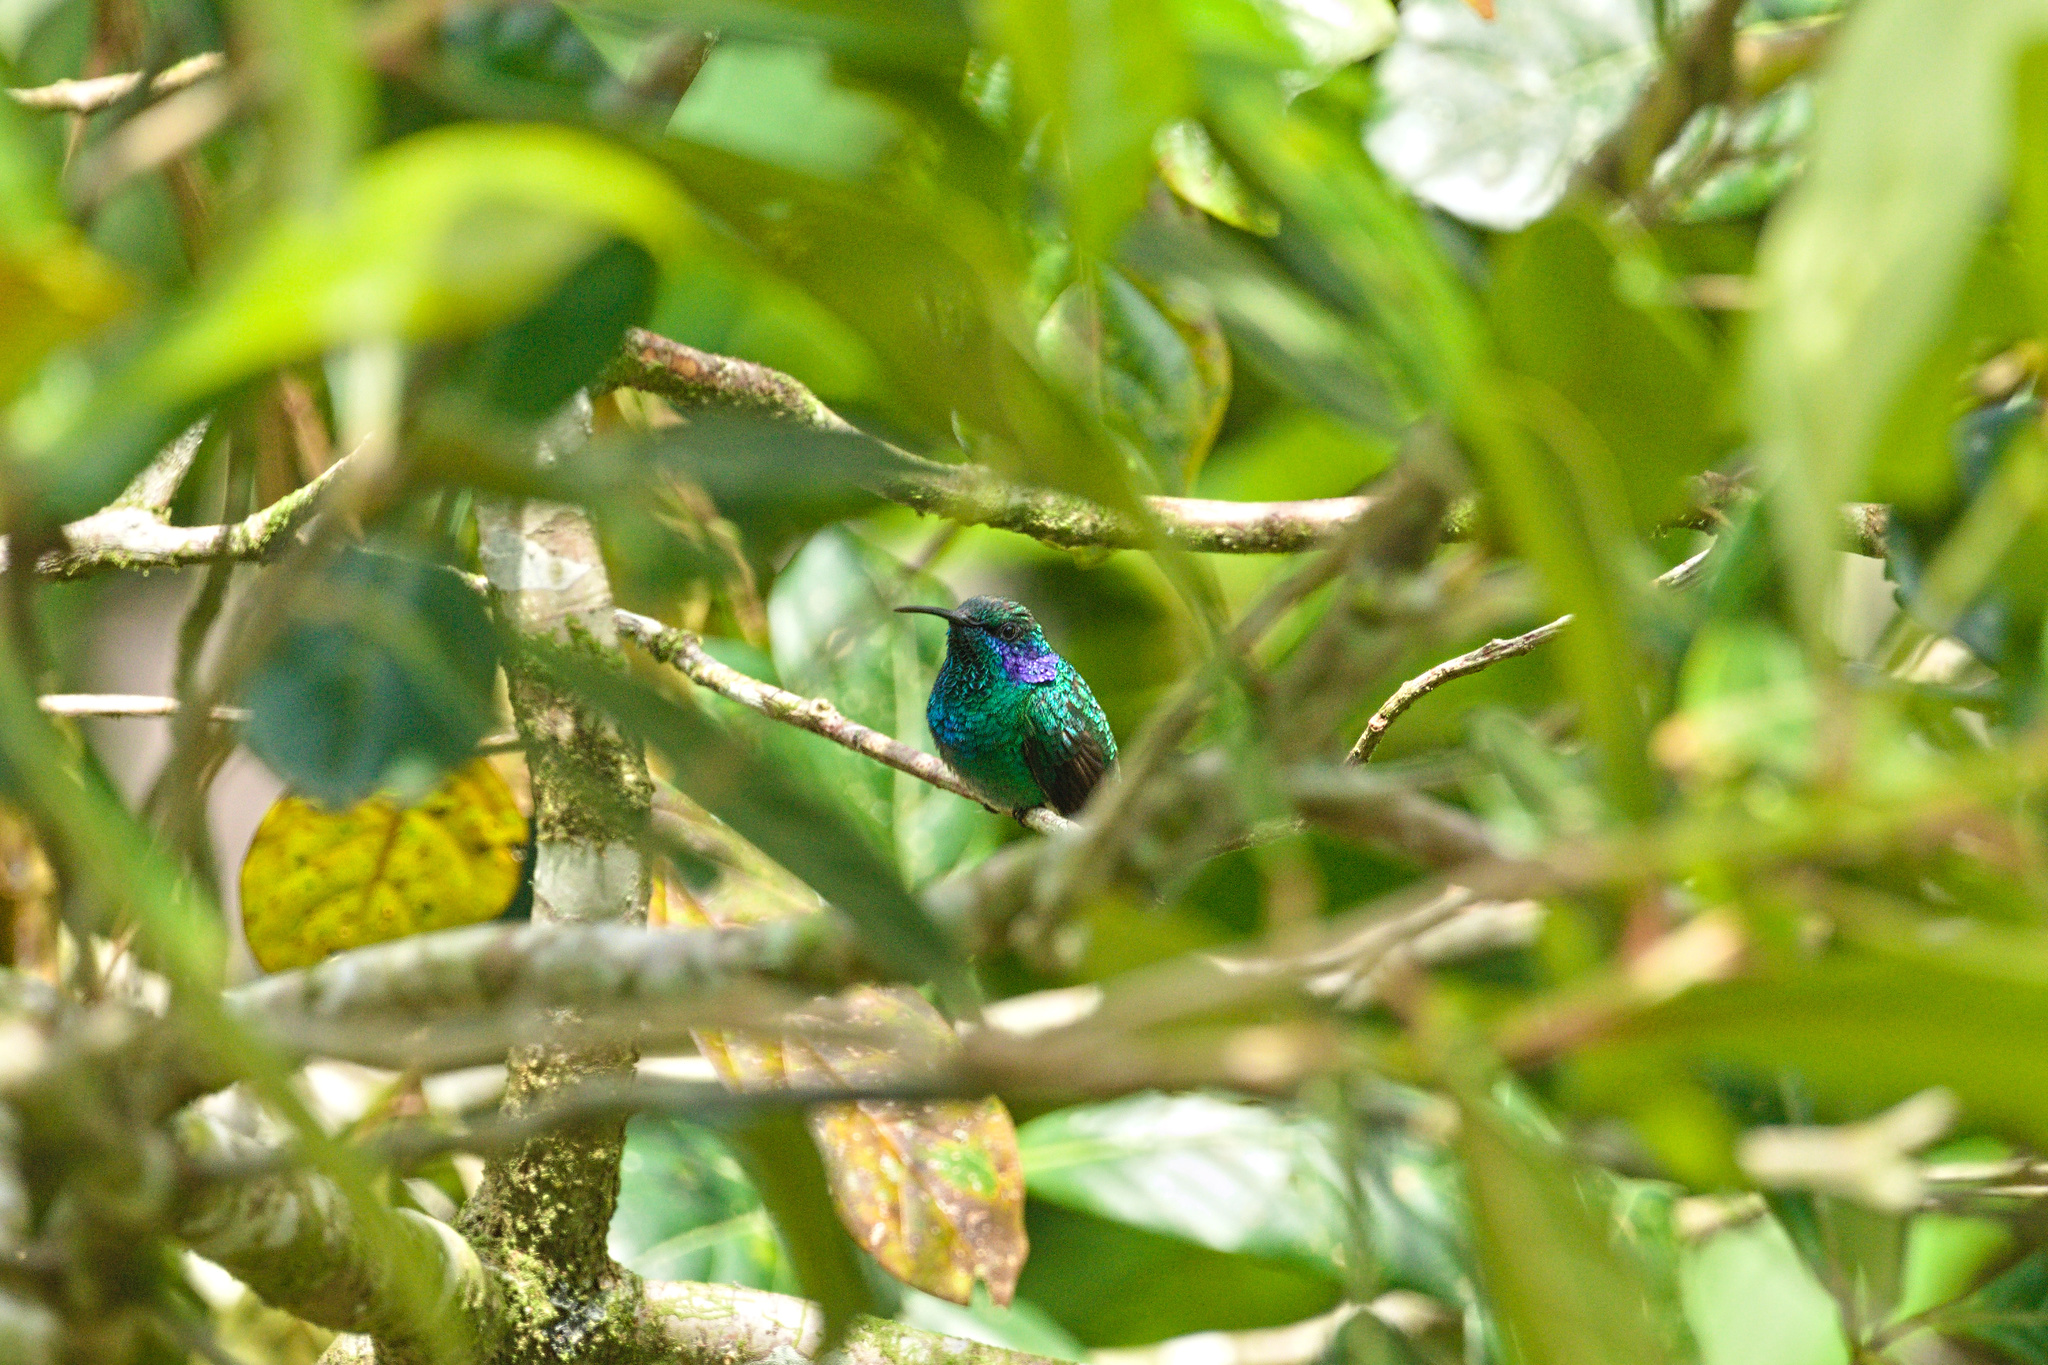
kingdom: Animalia
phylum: Chordata
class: Aves
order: Apodiformes
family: Trochilidae
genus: Colibri
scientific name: Colibri cyanotus
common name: Lesser violetear
